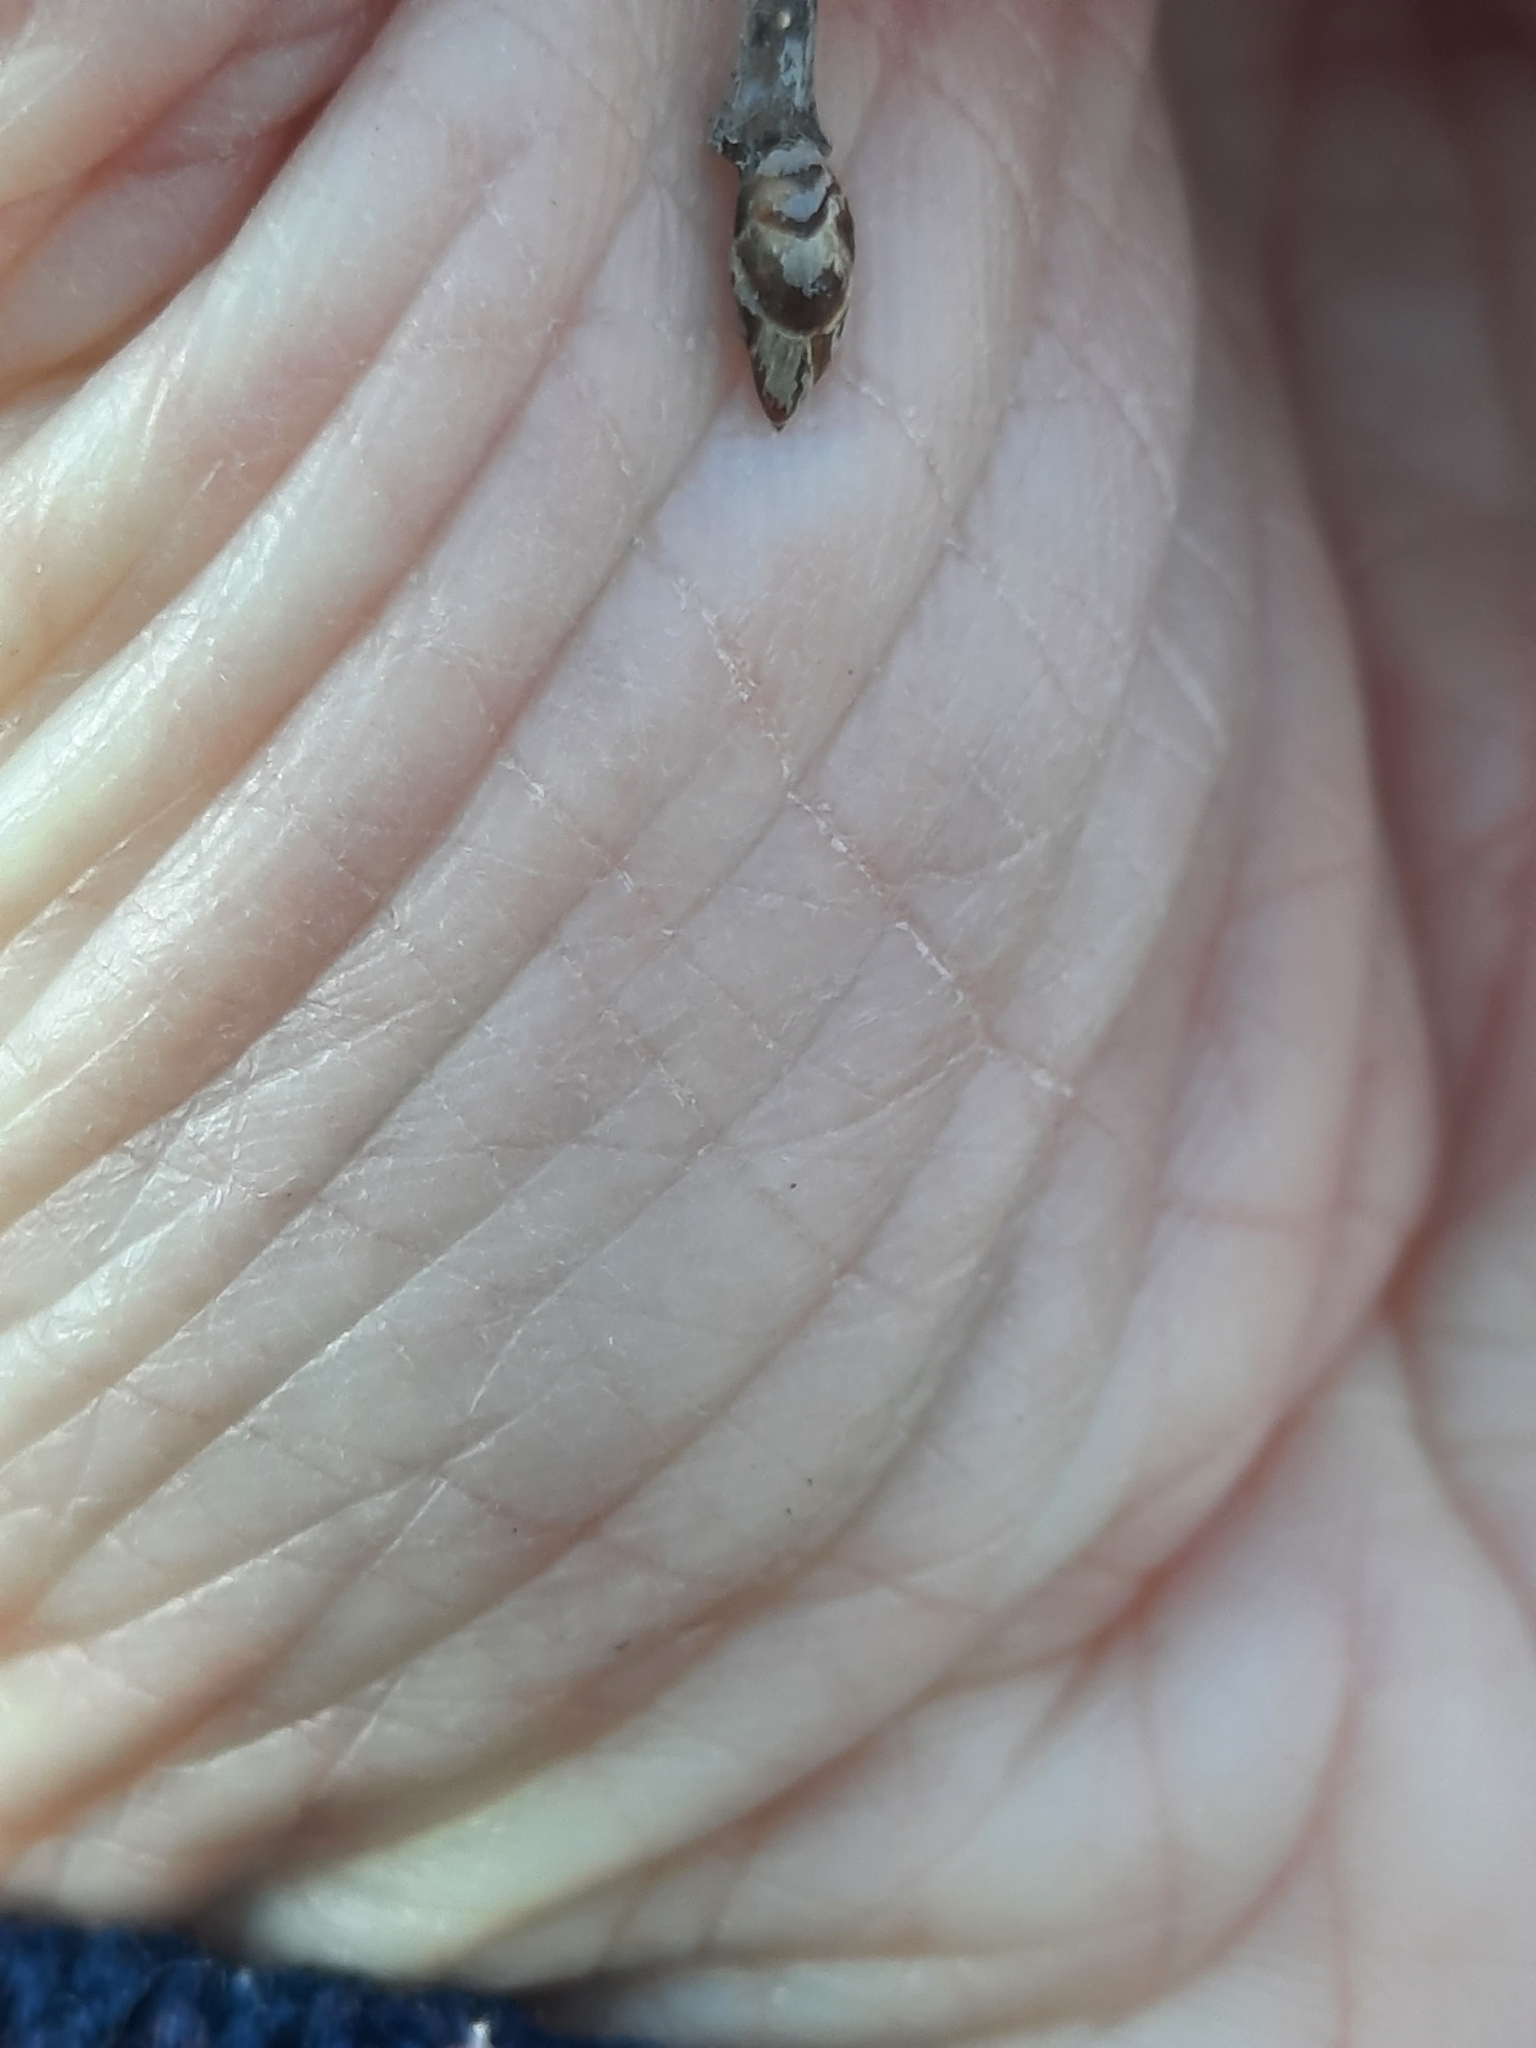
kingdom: Plantae
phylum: Tracheophyta
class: Magnoliopsida
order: Fagales
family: Betulaceae
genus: Ostrya
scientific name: Ostrya virginiana
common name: Ironwood
